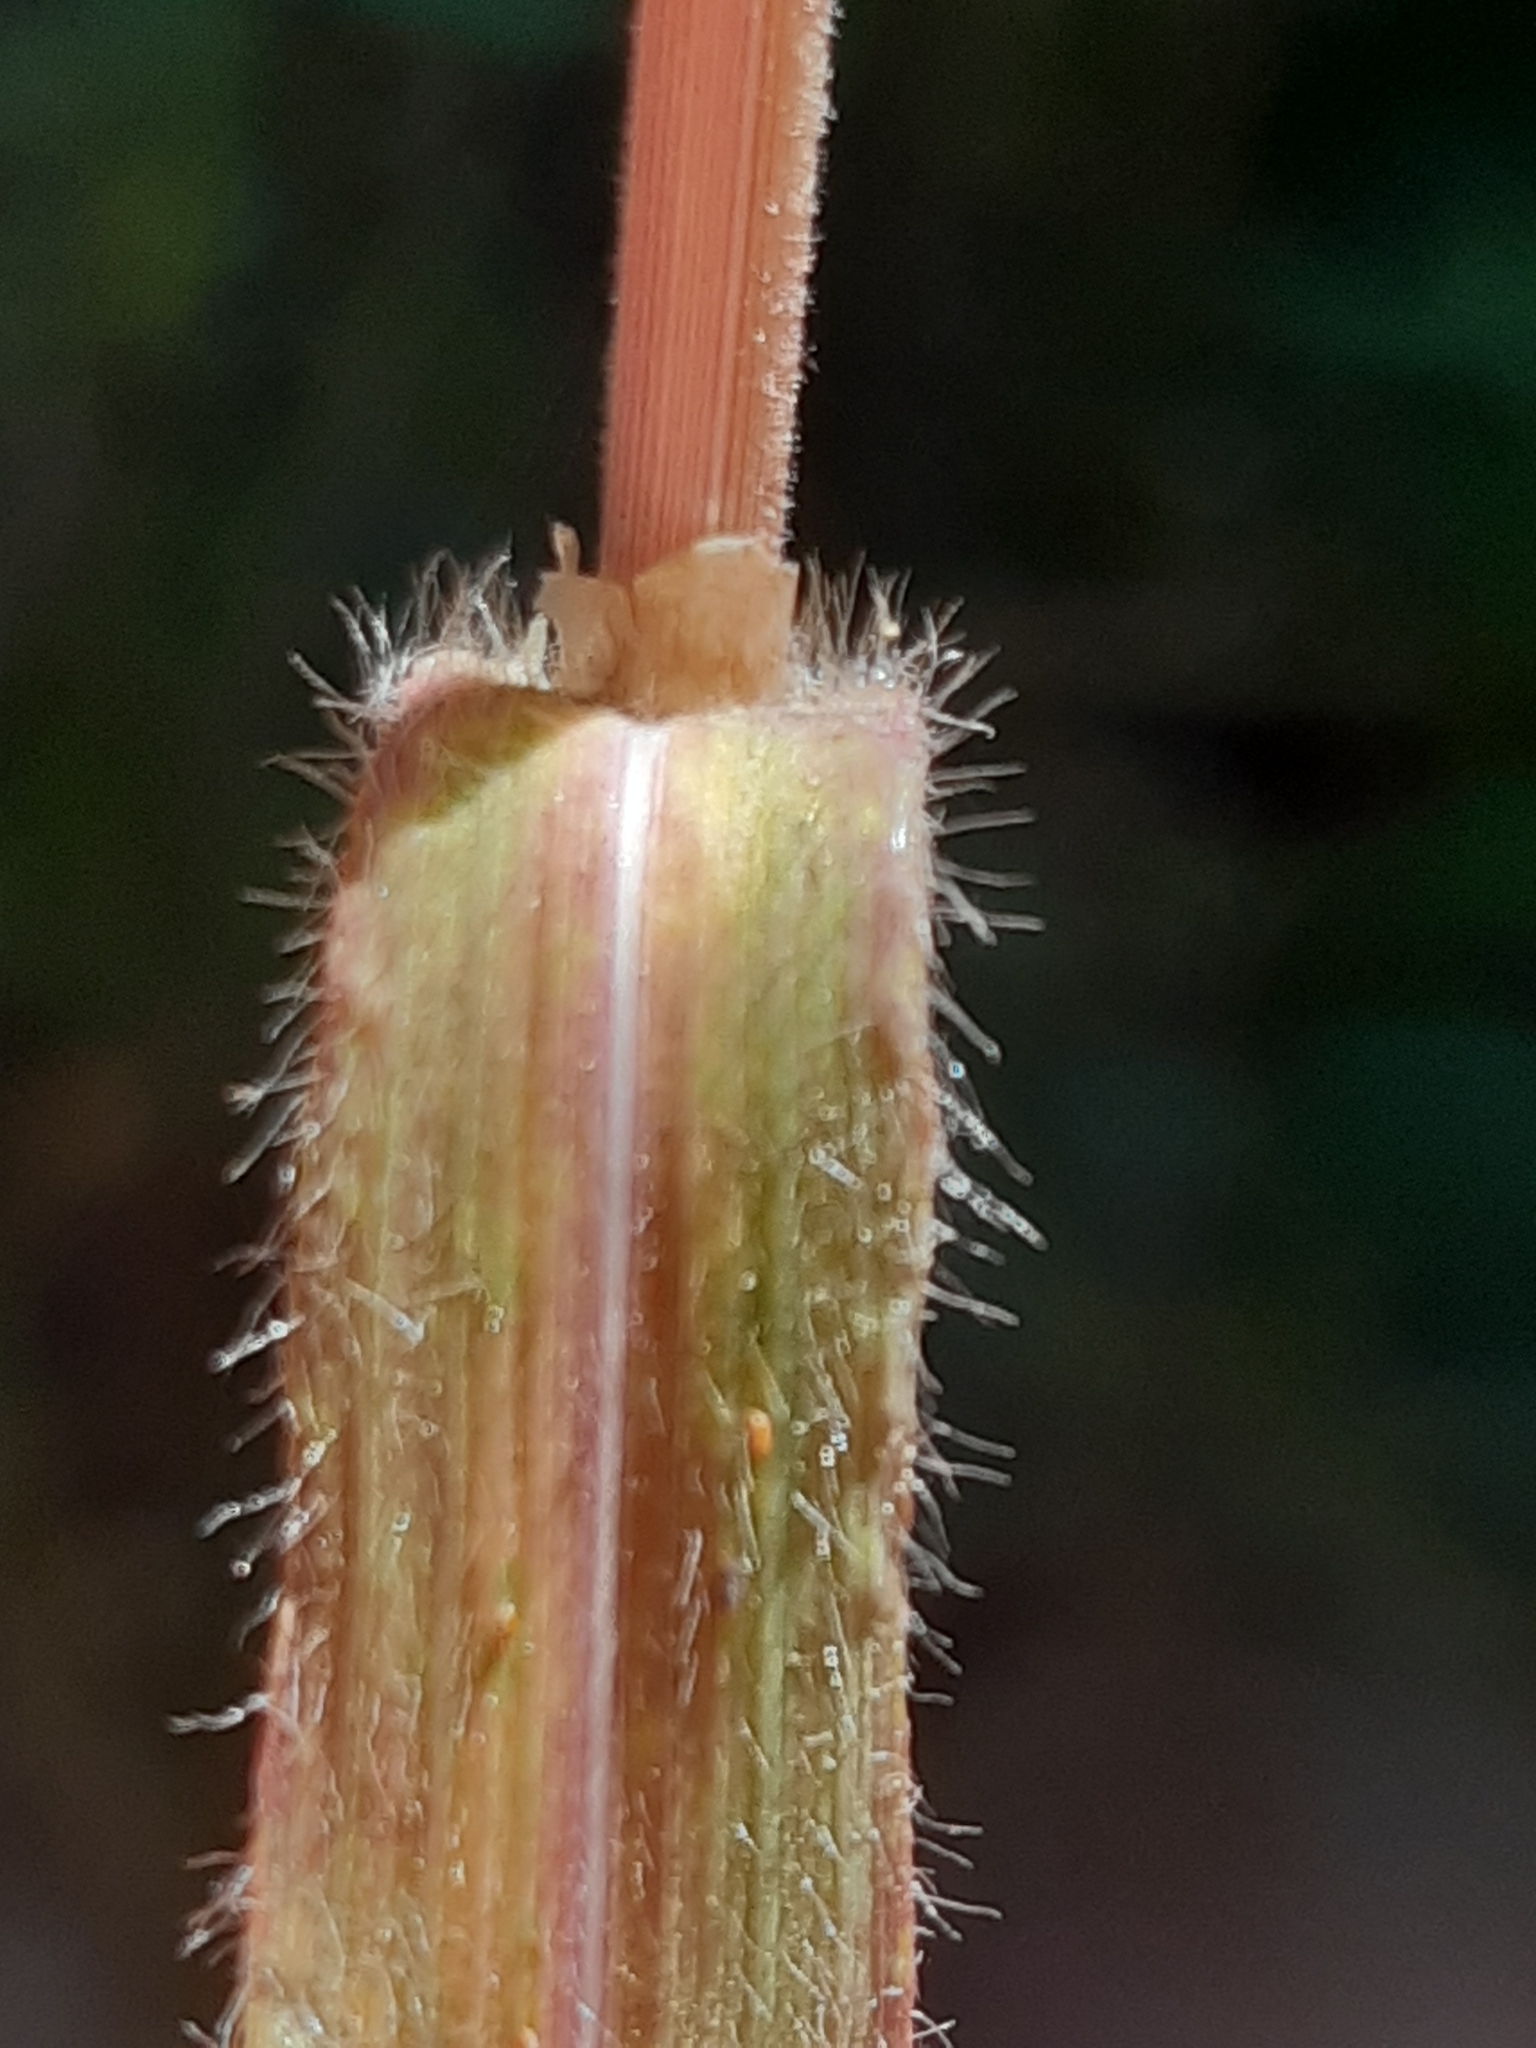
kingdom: Plantae
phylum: Tracheophyta
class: Liliopsida
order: Poales
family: Poaceae
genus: Bromus
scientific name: Bromus ramosus
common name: Hairy brome
